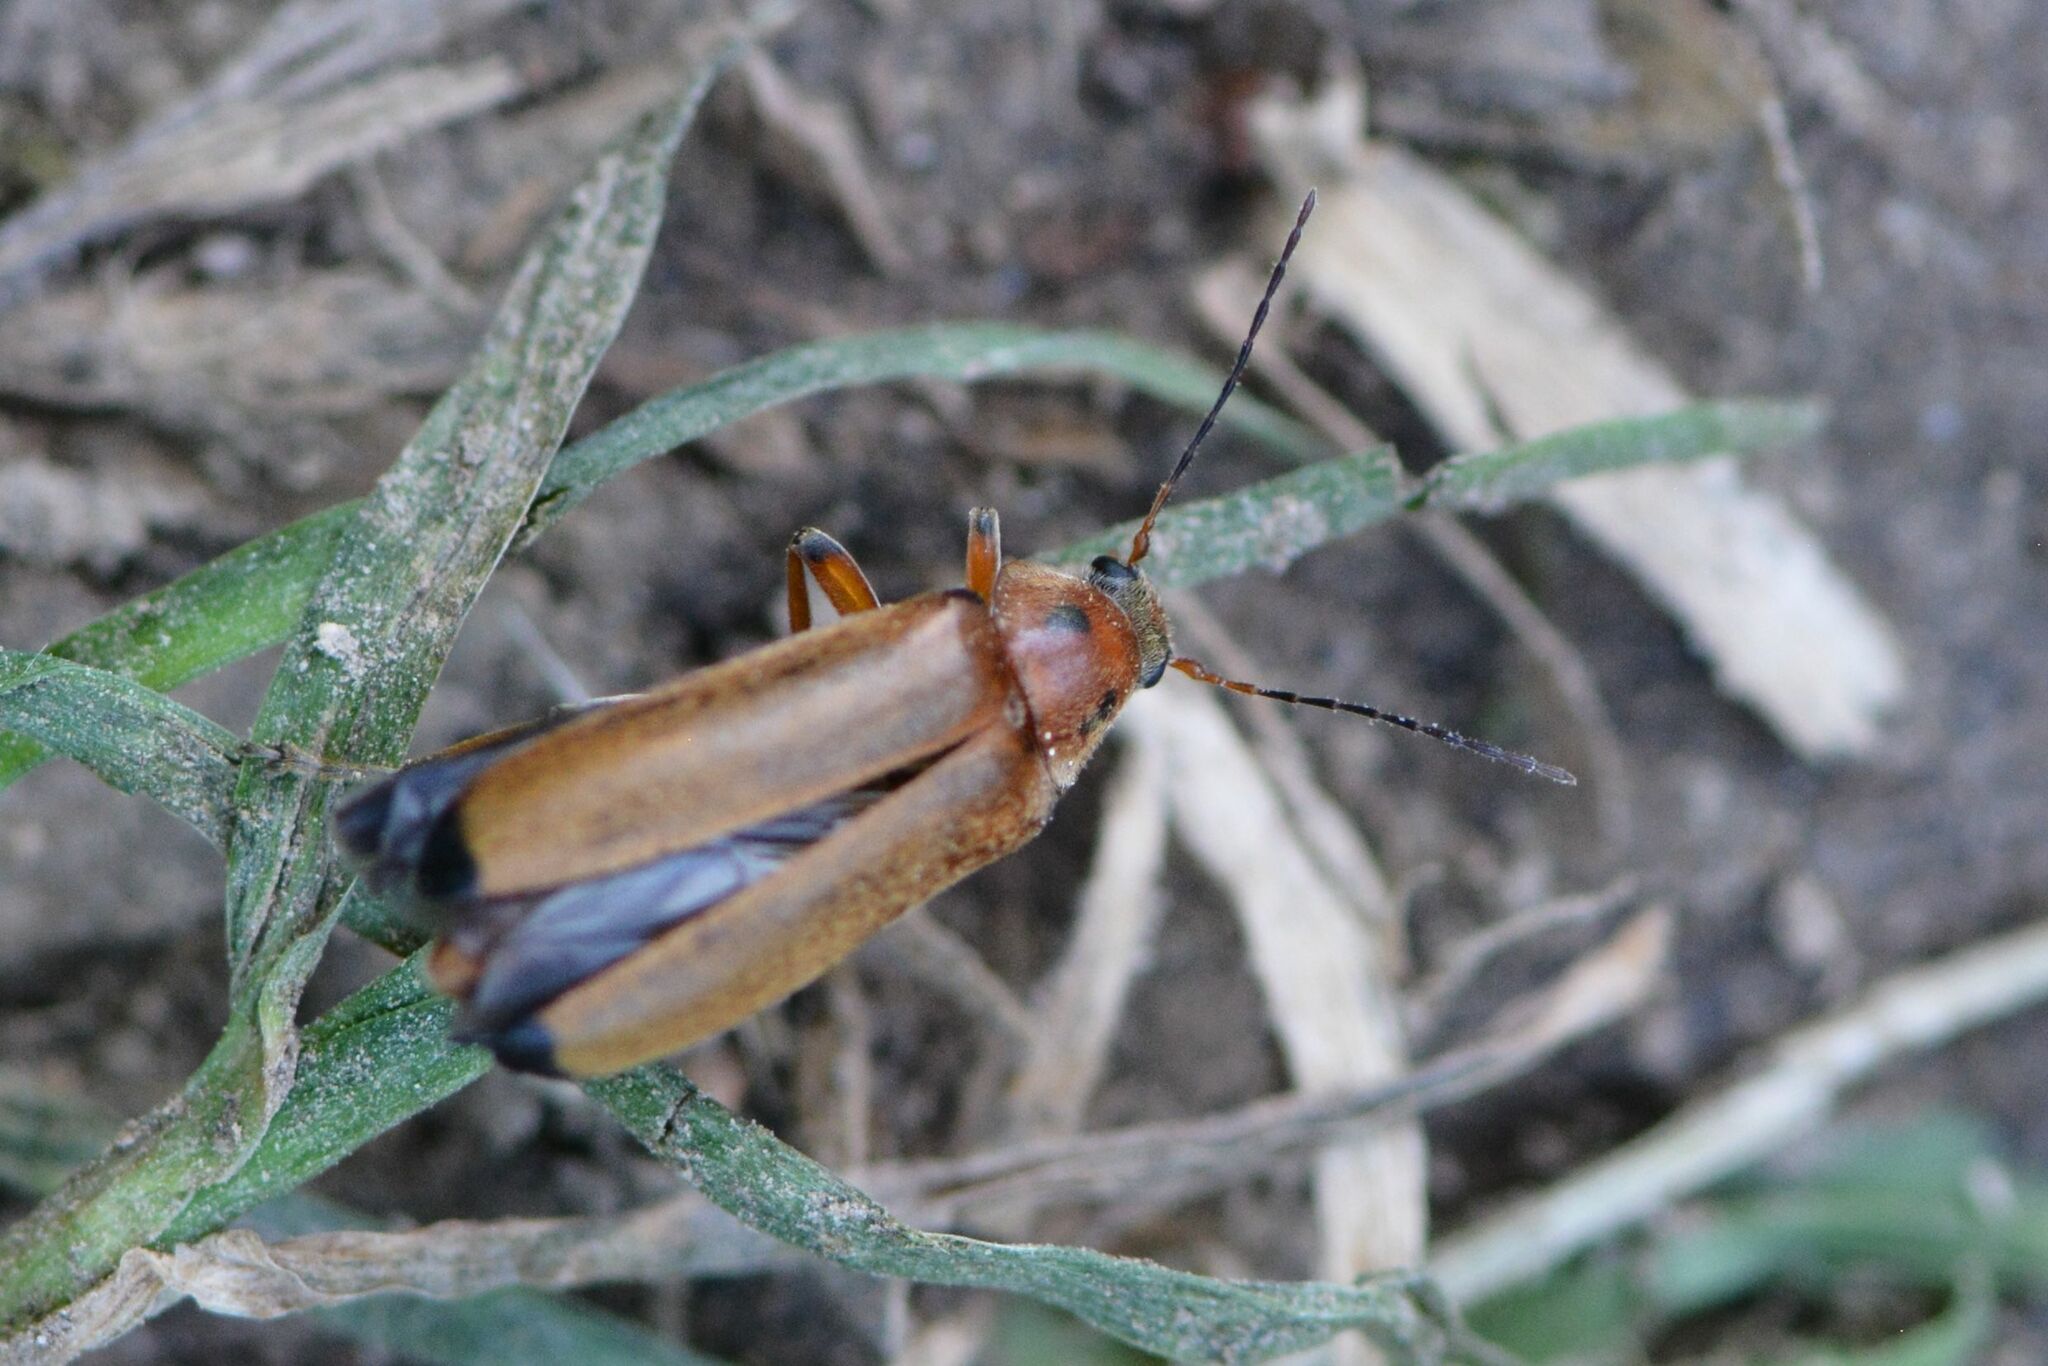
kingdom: Animalia
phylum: Arthropoda
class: Insecta
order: Coleoptera
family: Melandryidae
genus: Osphya
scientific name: Osphya bipunctata
